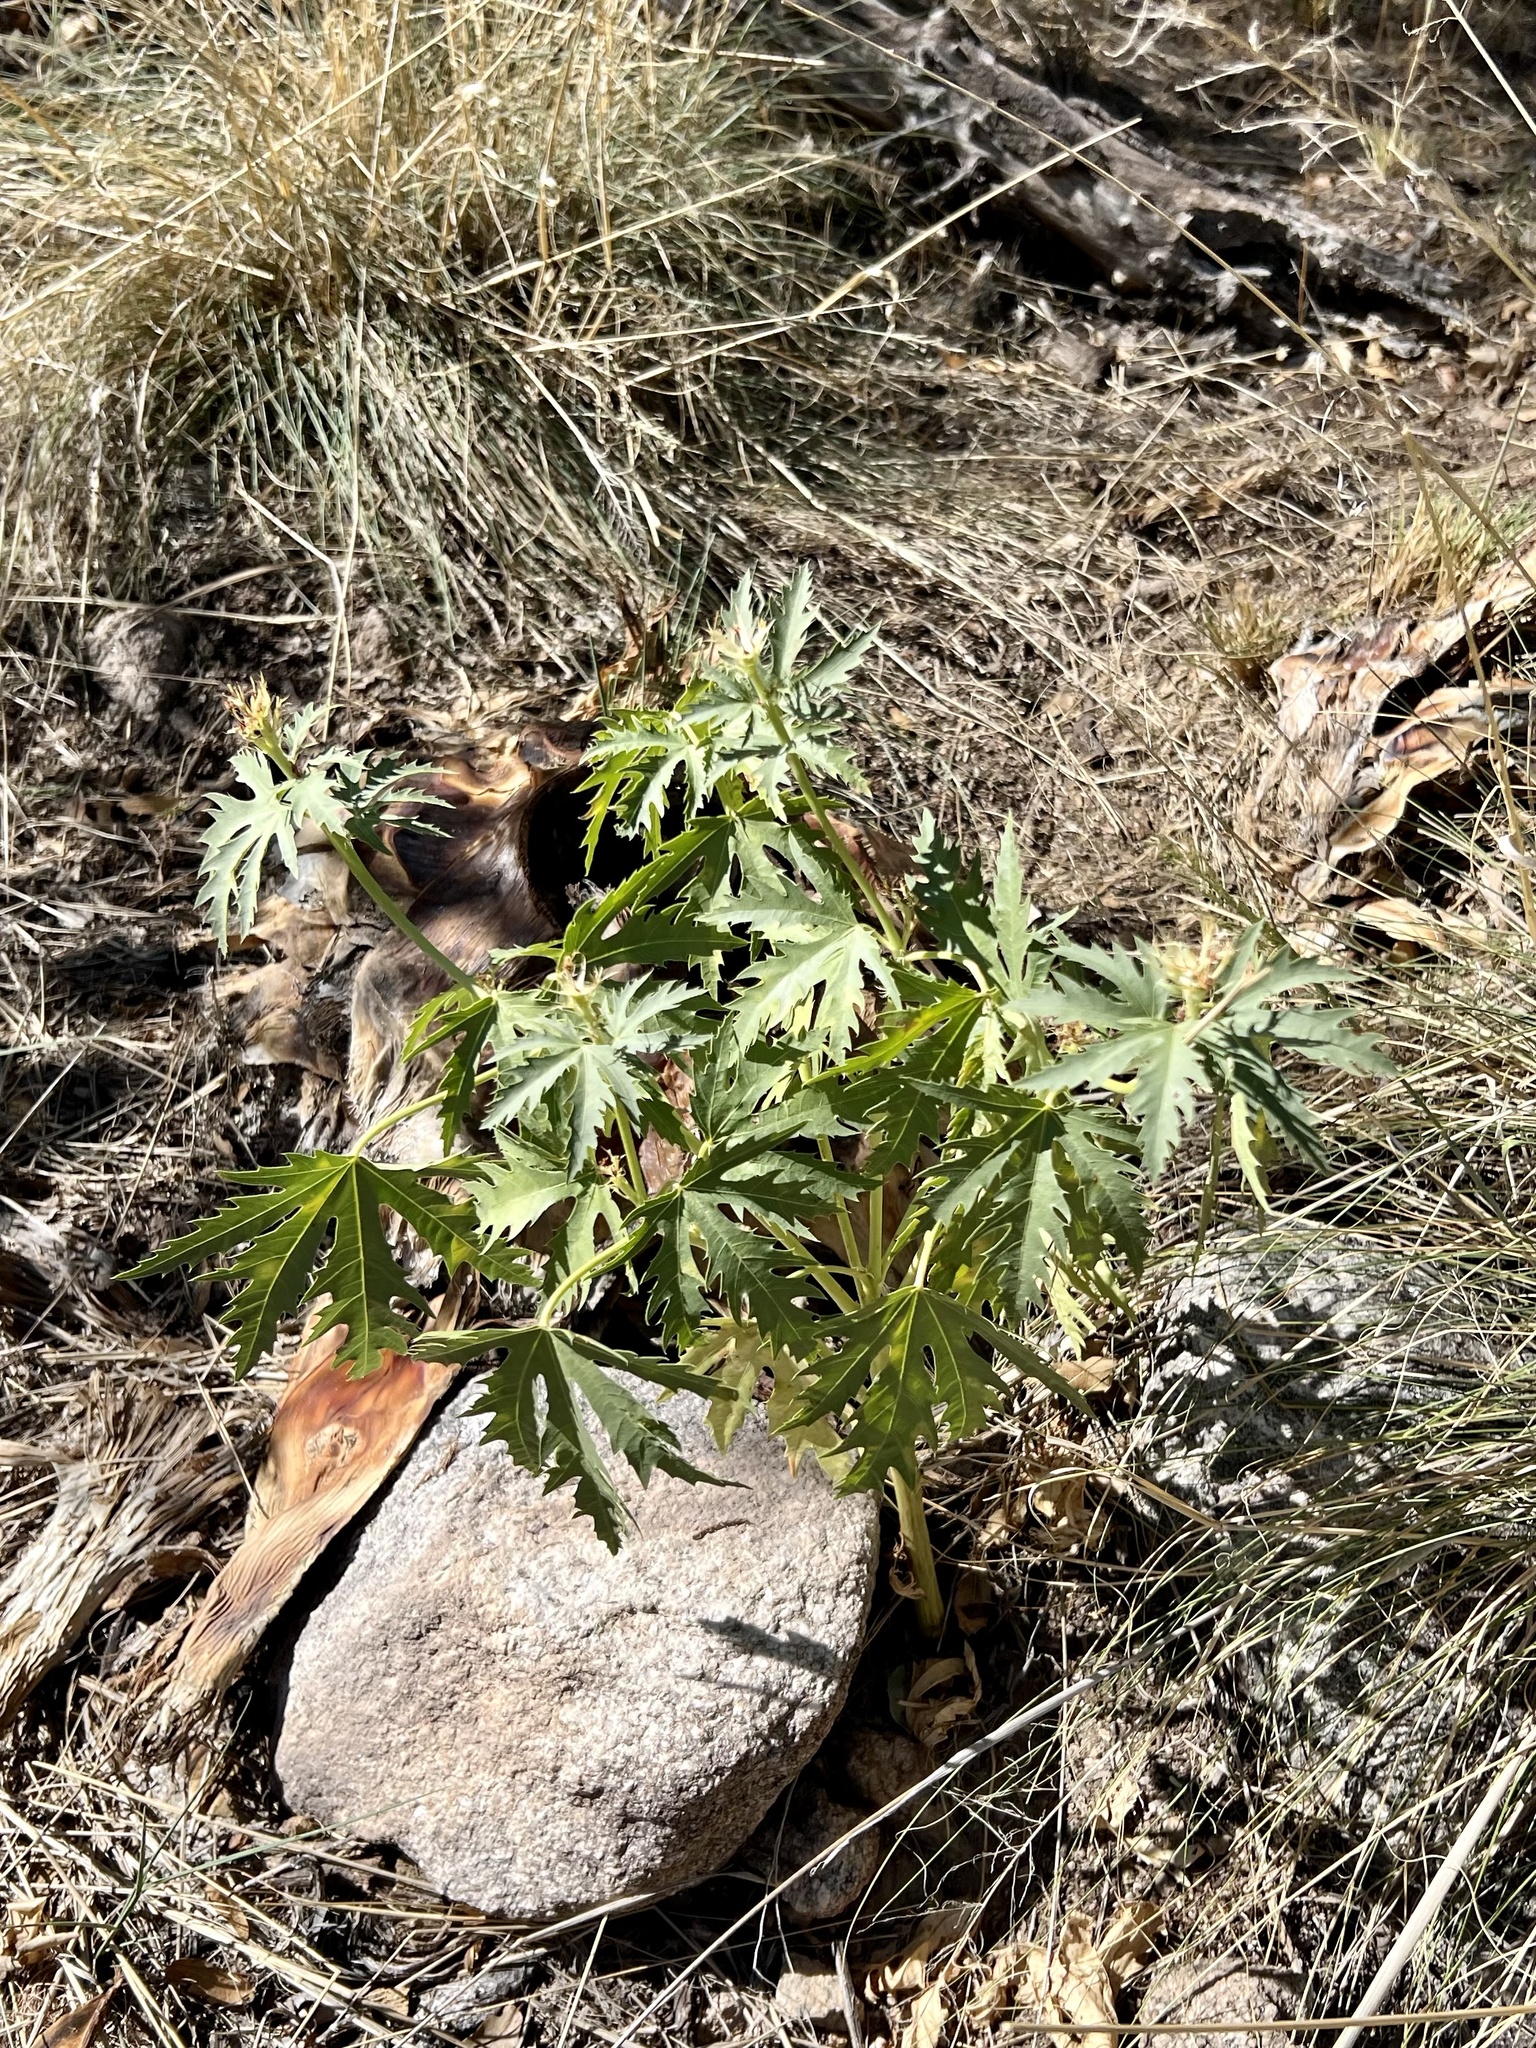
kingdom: Plantae
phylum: Tracheophyta
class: Magnoliopsida
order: Malpighiales
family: Euphorbiaceae
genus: Jatropha
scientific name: Jatropha macrorhiza
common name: Ragged nettlespurge
